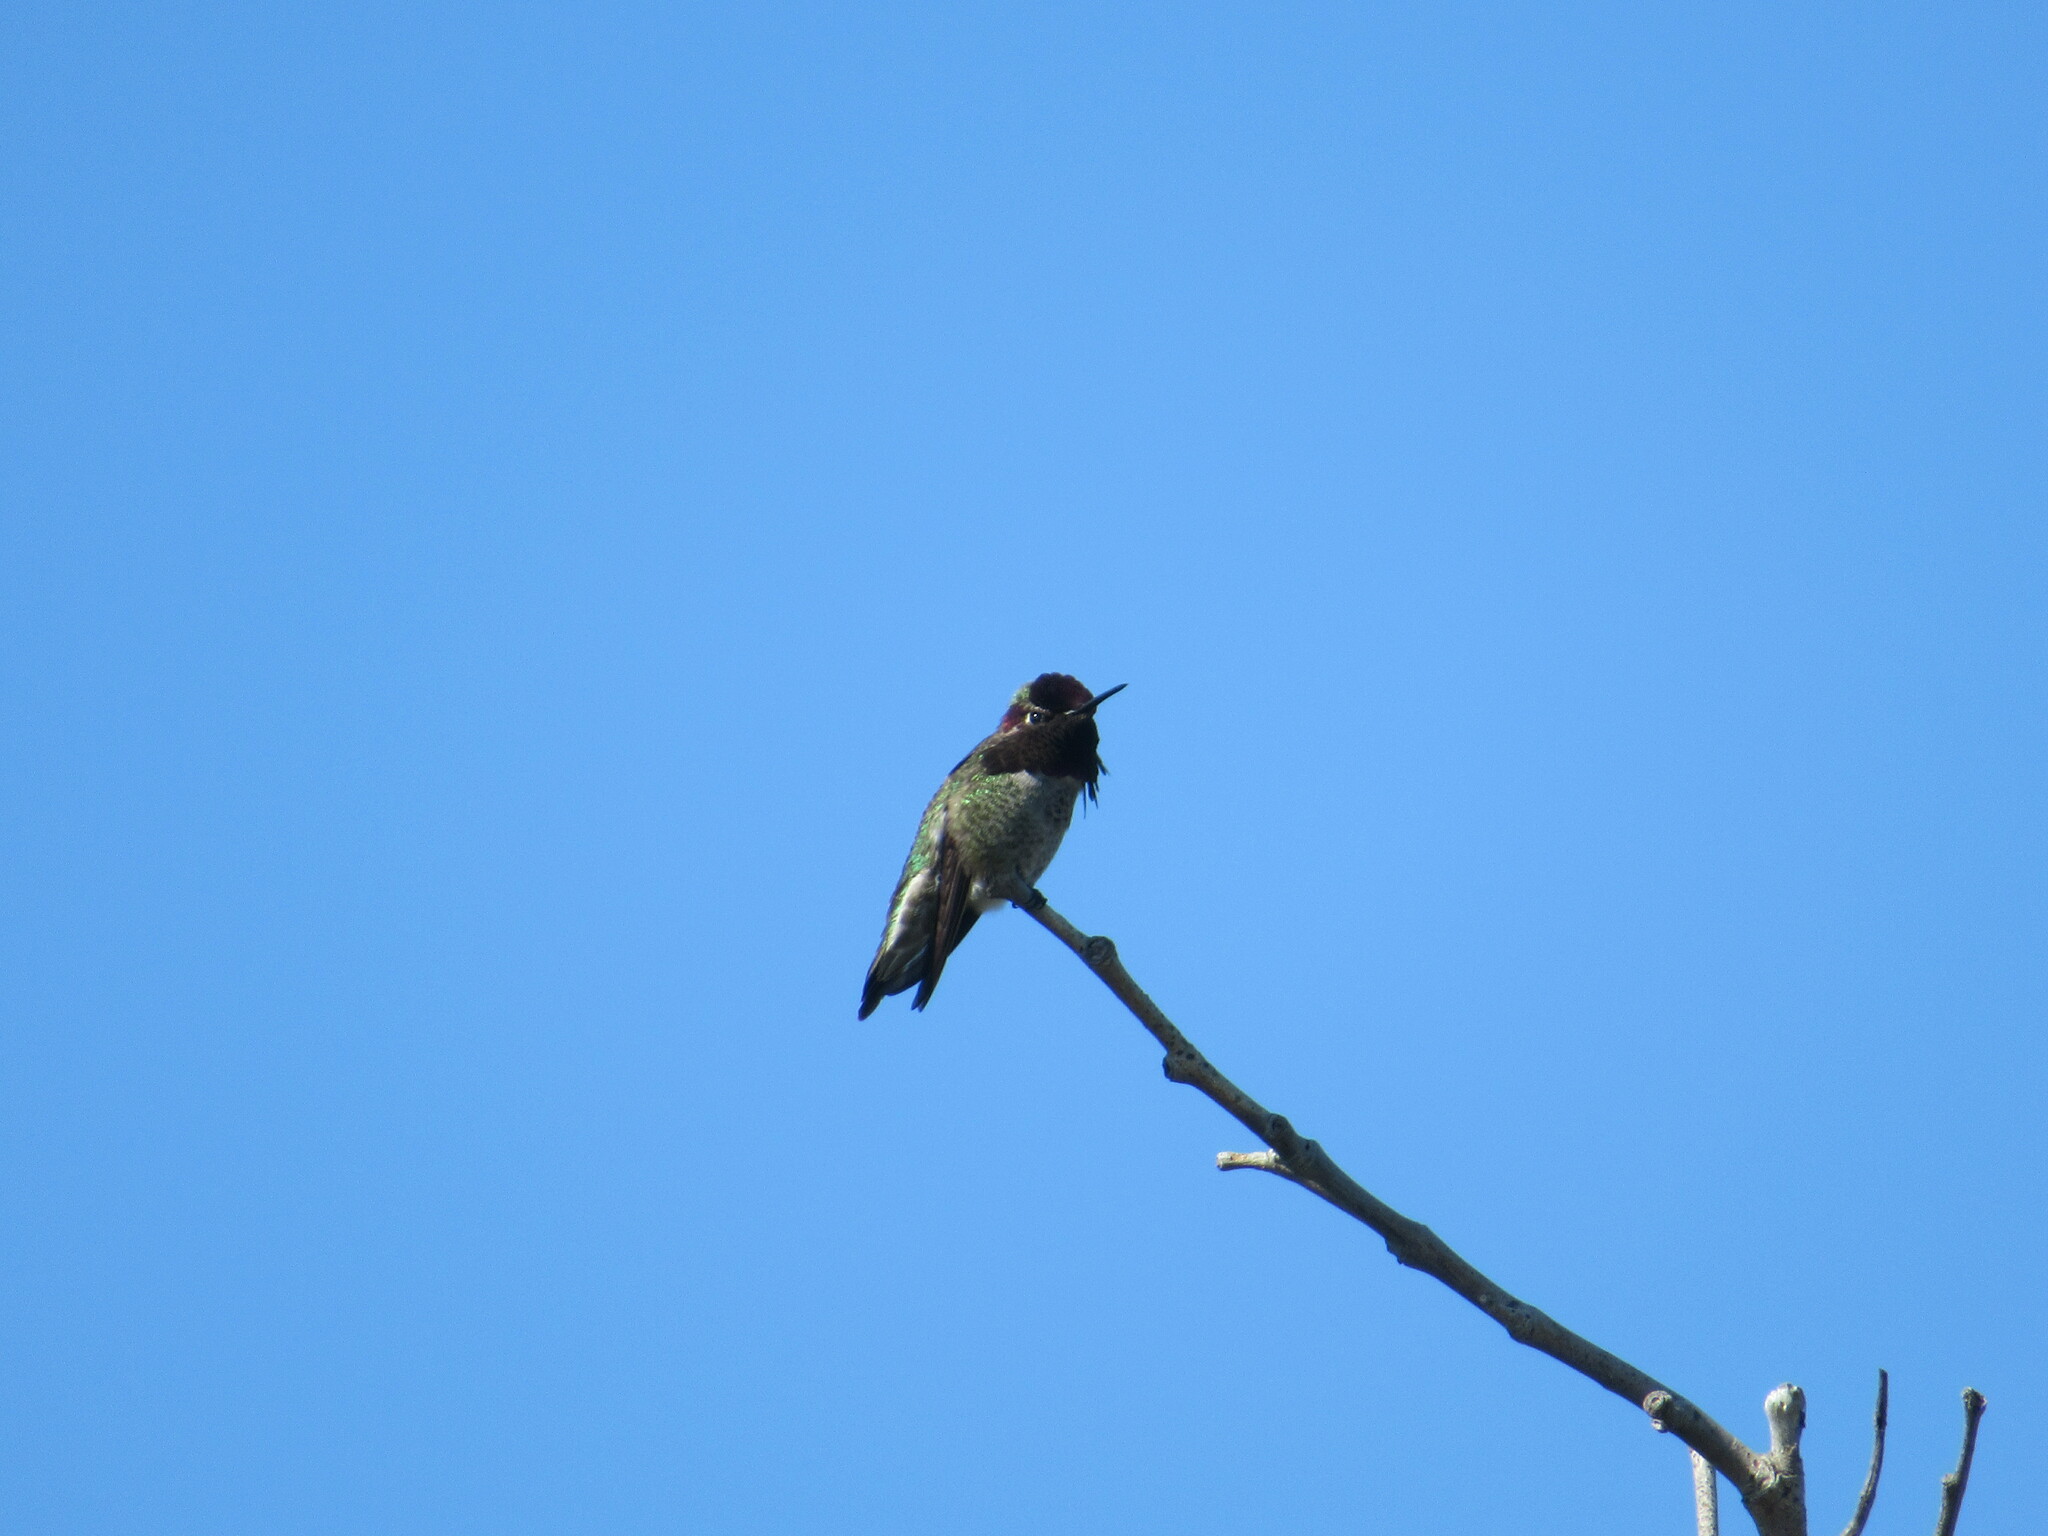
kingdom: Animalia
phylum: Chordata
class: Aves
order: Apodiformes
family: Trochilidae
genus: Calypte
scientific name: Calypte anna
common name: Anna's hummingbird
